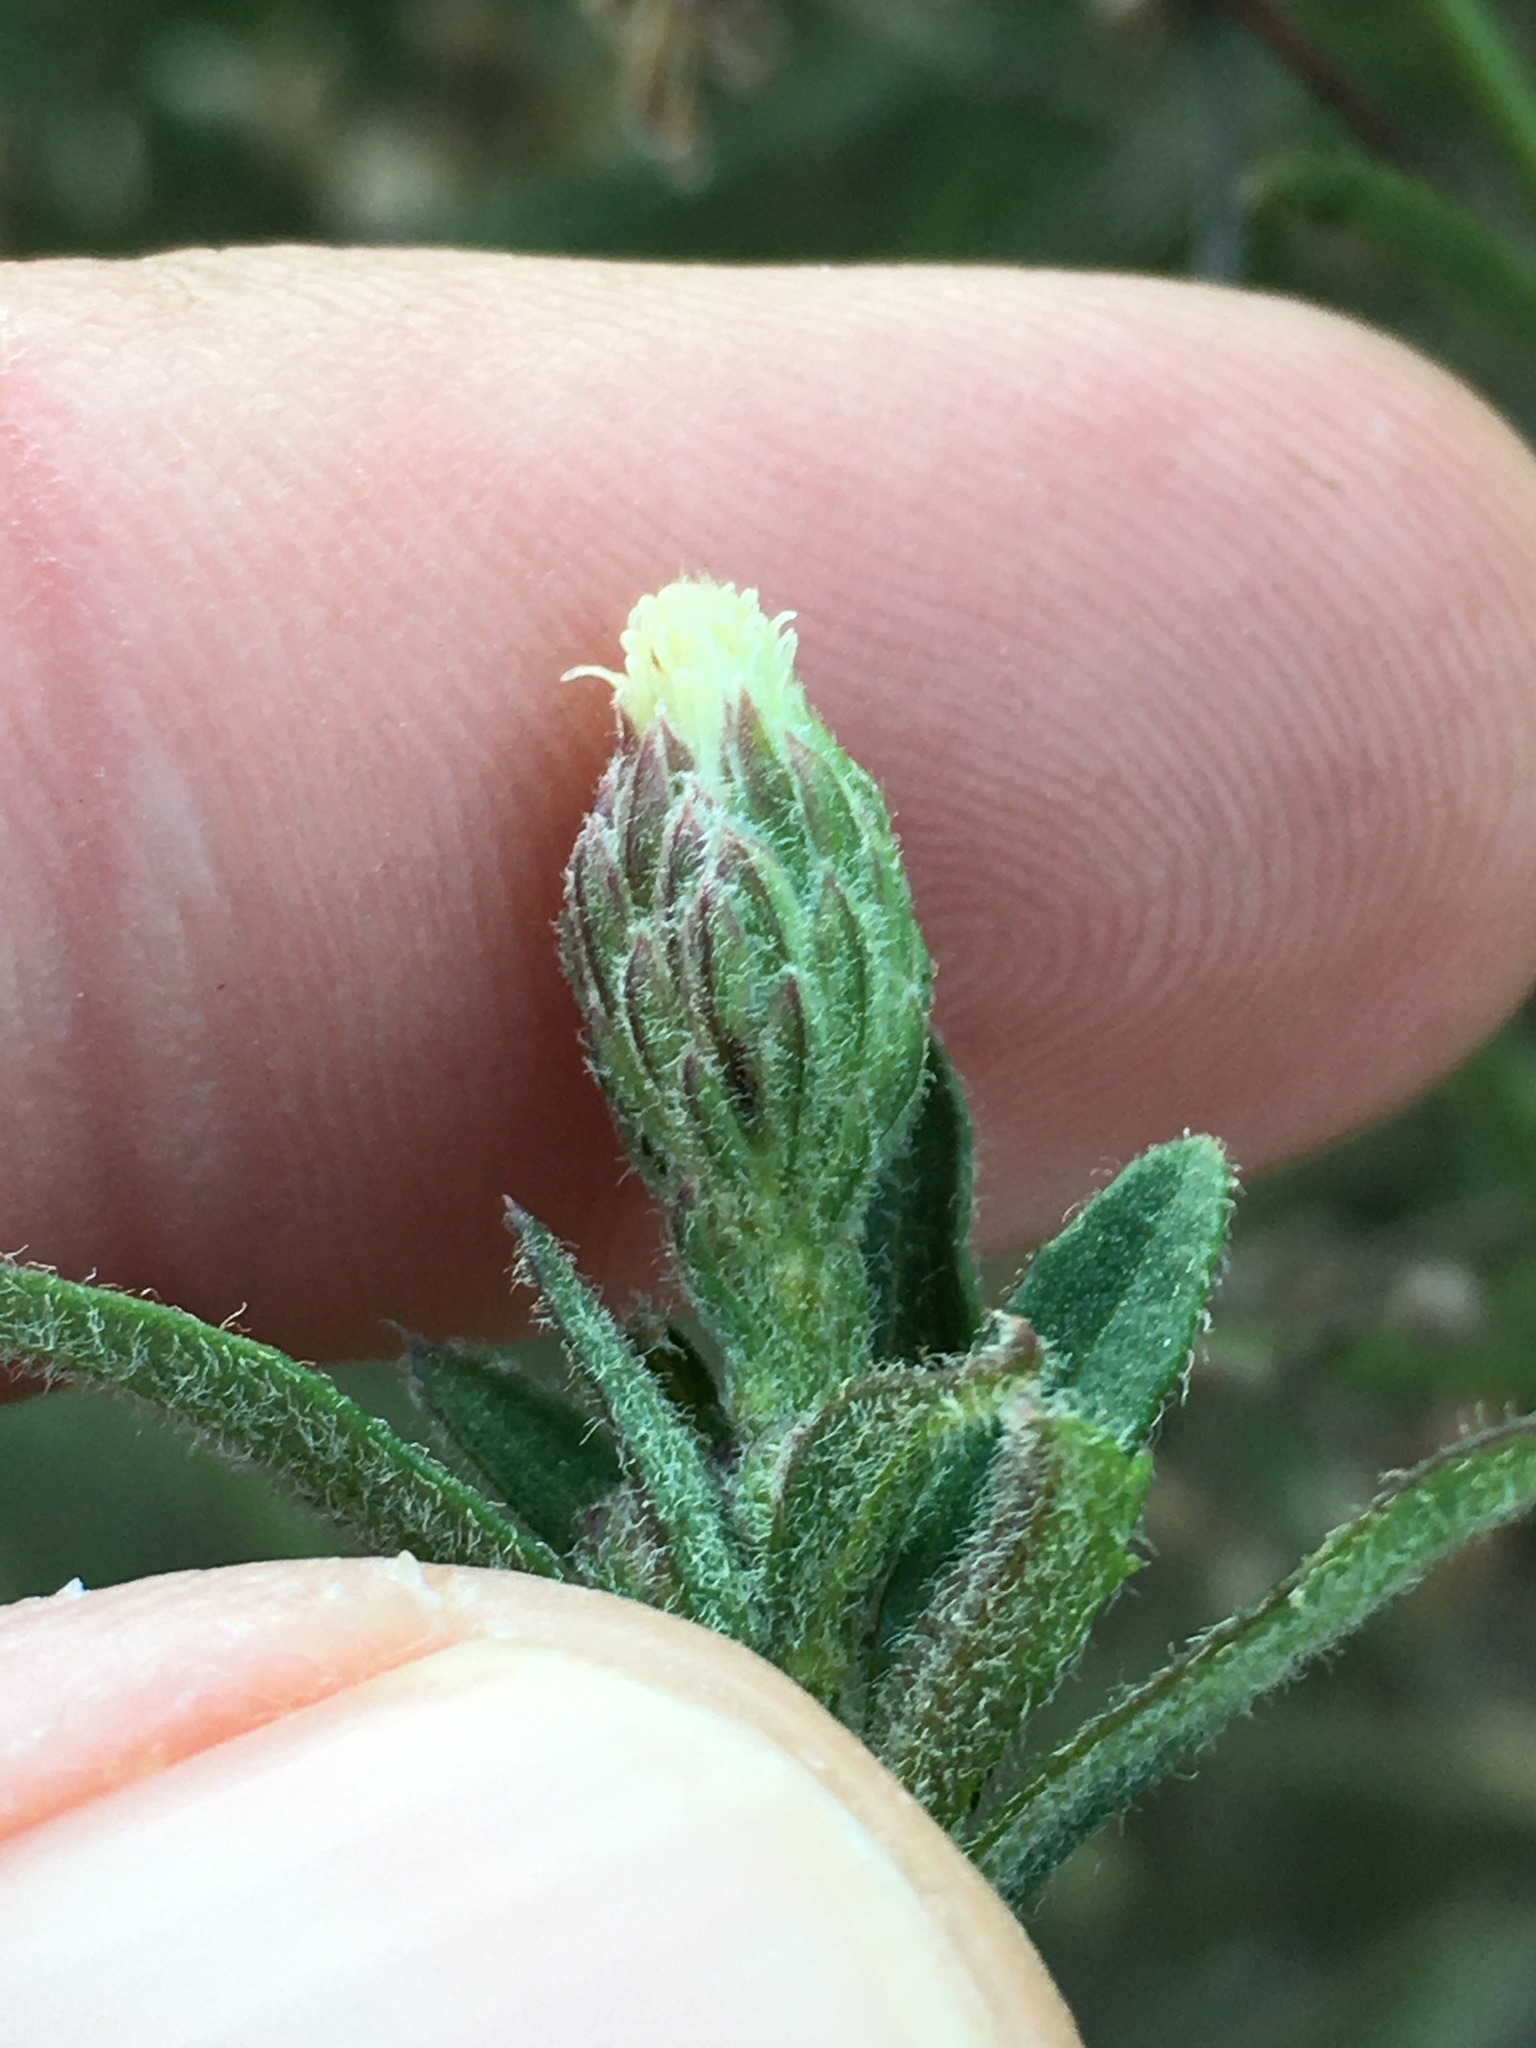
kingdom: Plantae
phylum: Tracheophyta
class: Magnoliopsida
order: Asterales
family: Asteraceae
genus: Baccharis
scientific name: Baccharis plummerae
